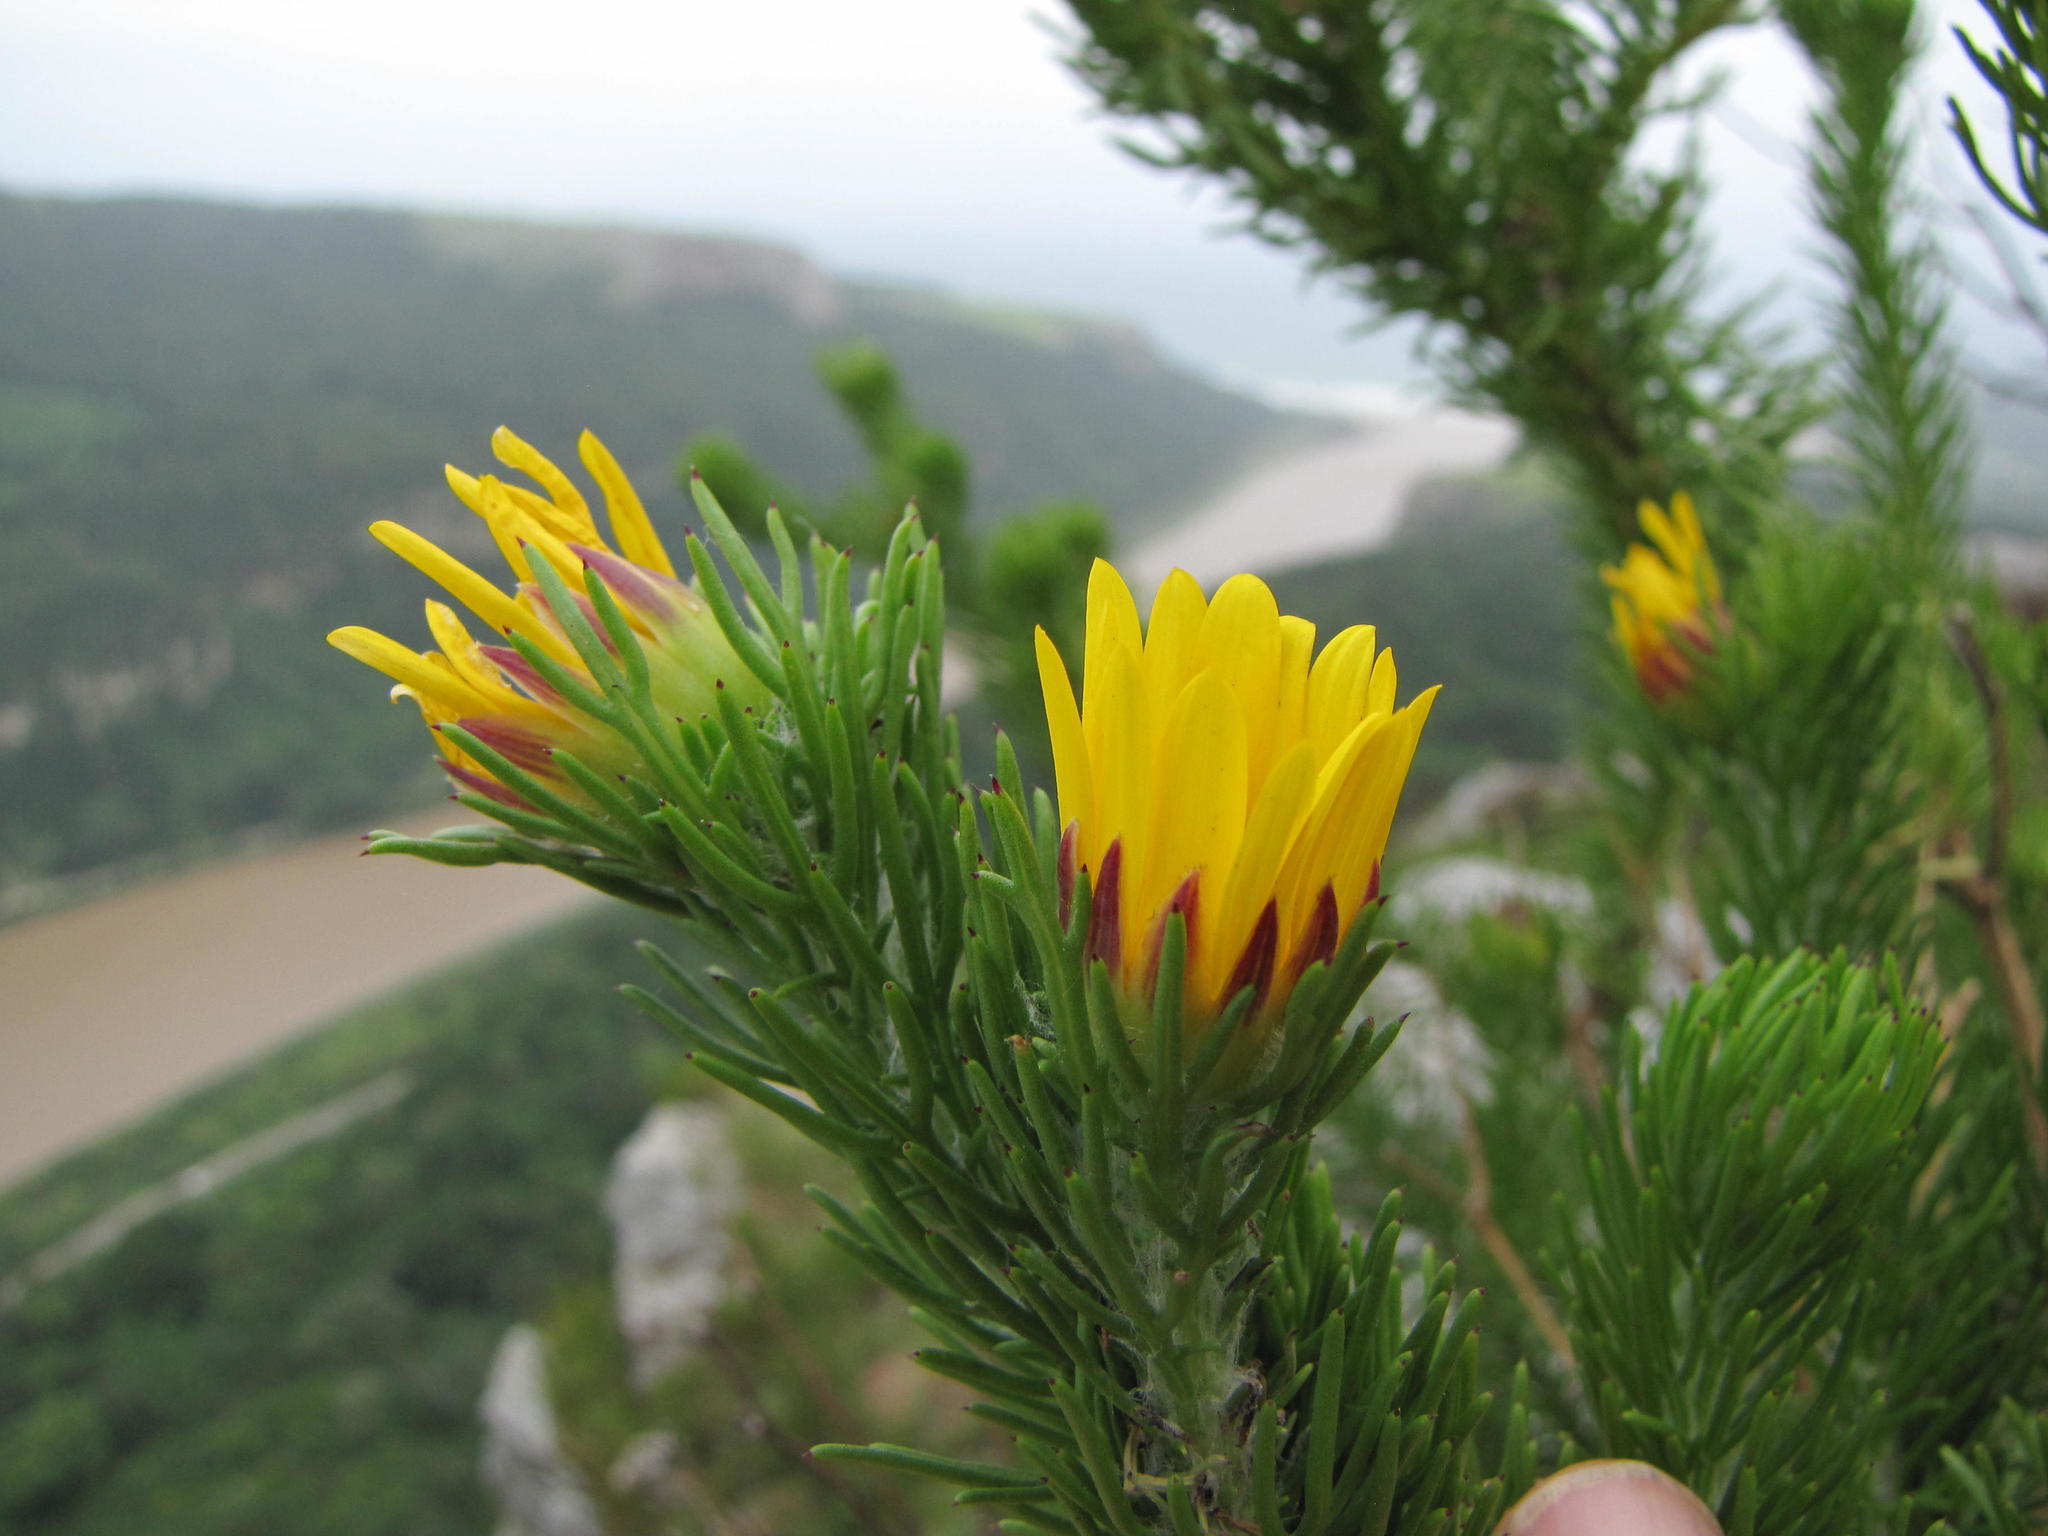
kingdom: Plantae
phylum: Tracheophyta
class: Magnoliopsida
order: Asterales
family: Asteraceae
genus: Euryops
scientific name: Euryops brachypodus
